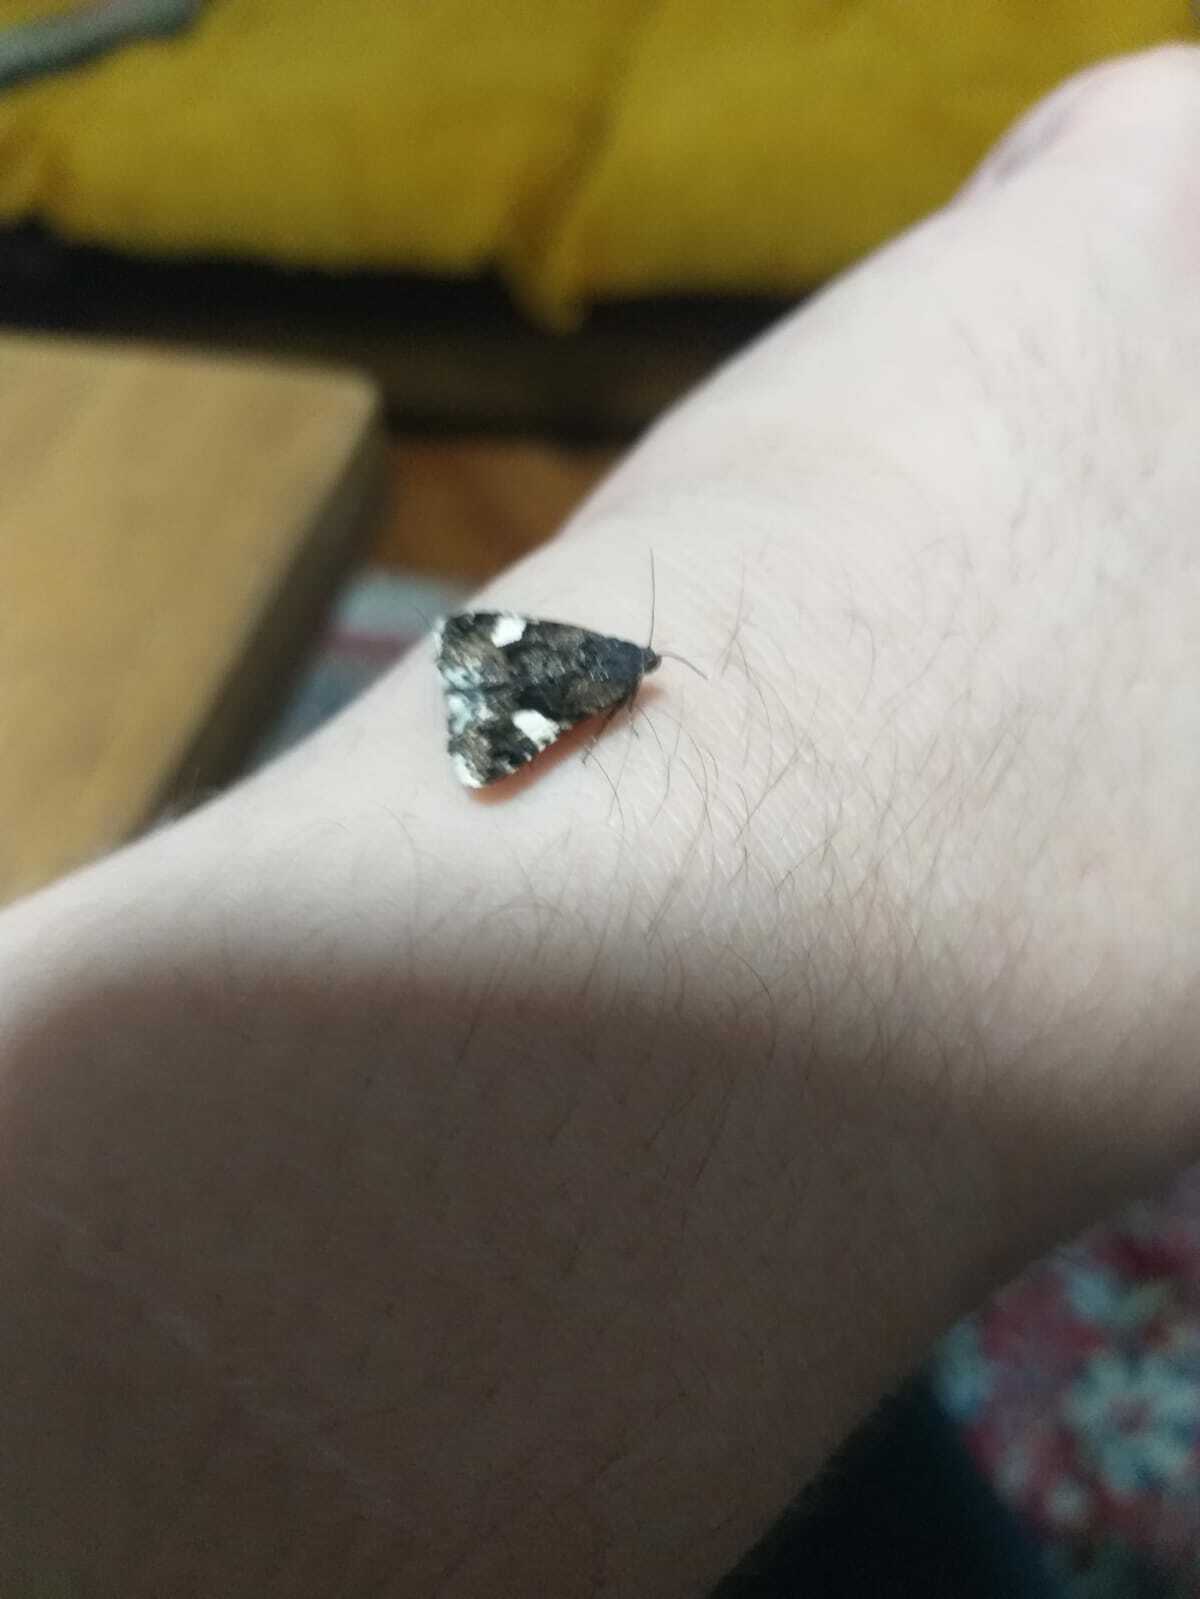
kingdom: Animalia
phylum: Arthropoda
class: Insecta
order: Lepidoptera
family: Erebidae
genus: Tyta
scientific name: Tyta luctuosa
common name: Four-spotted
